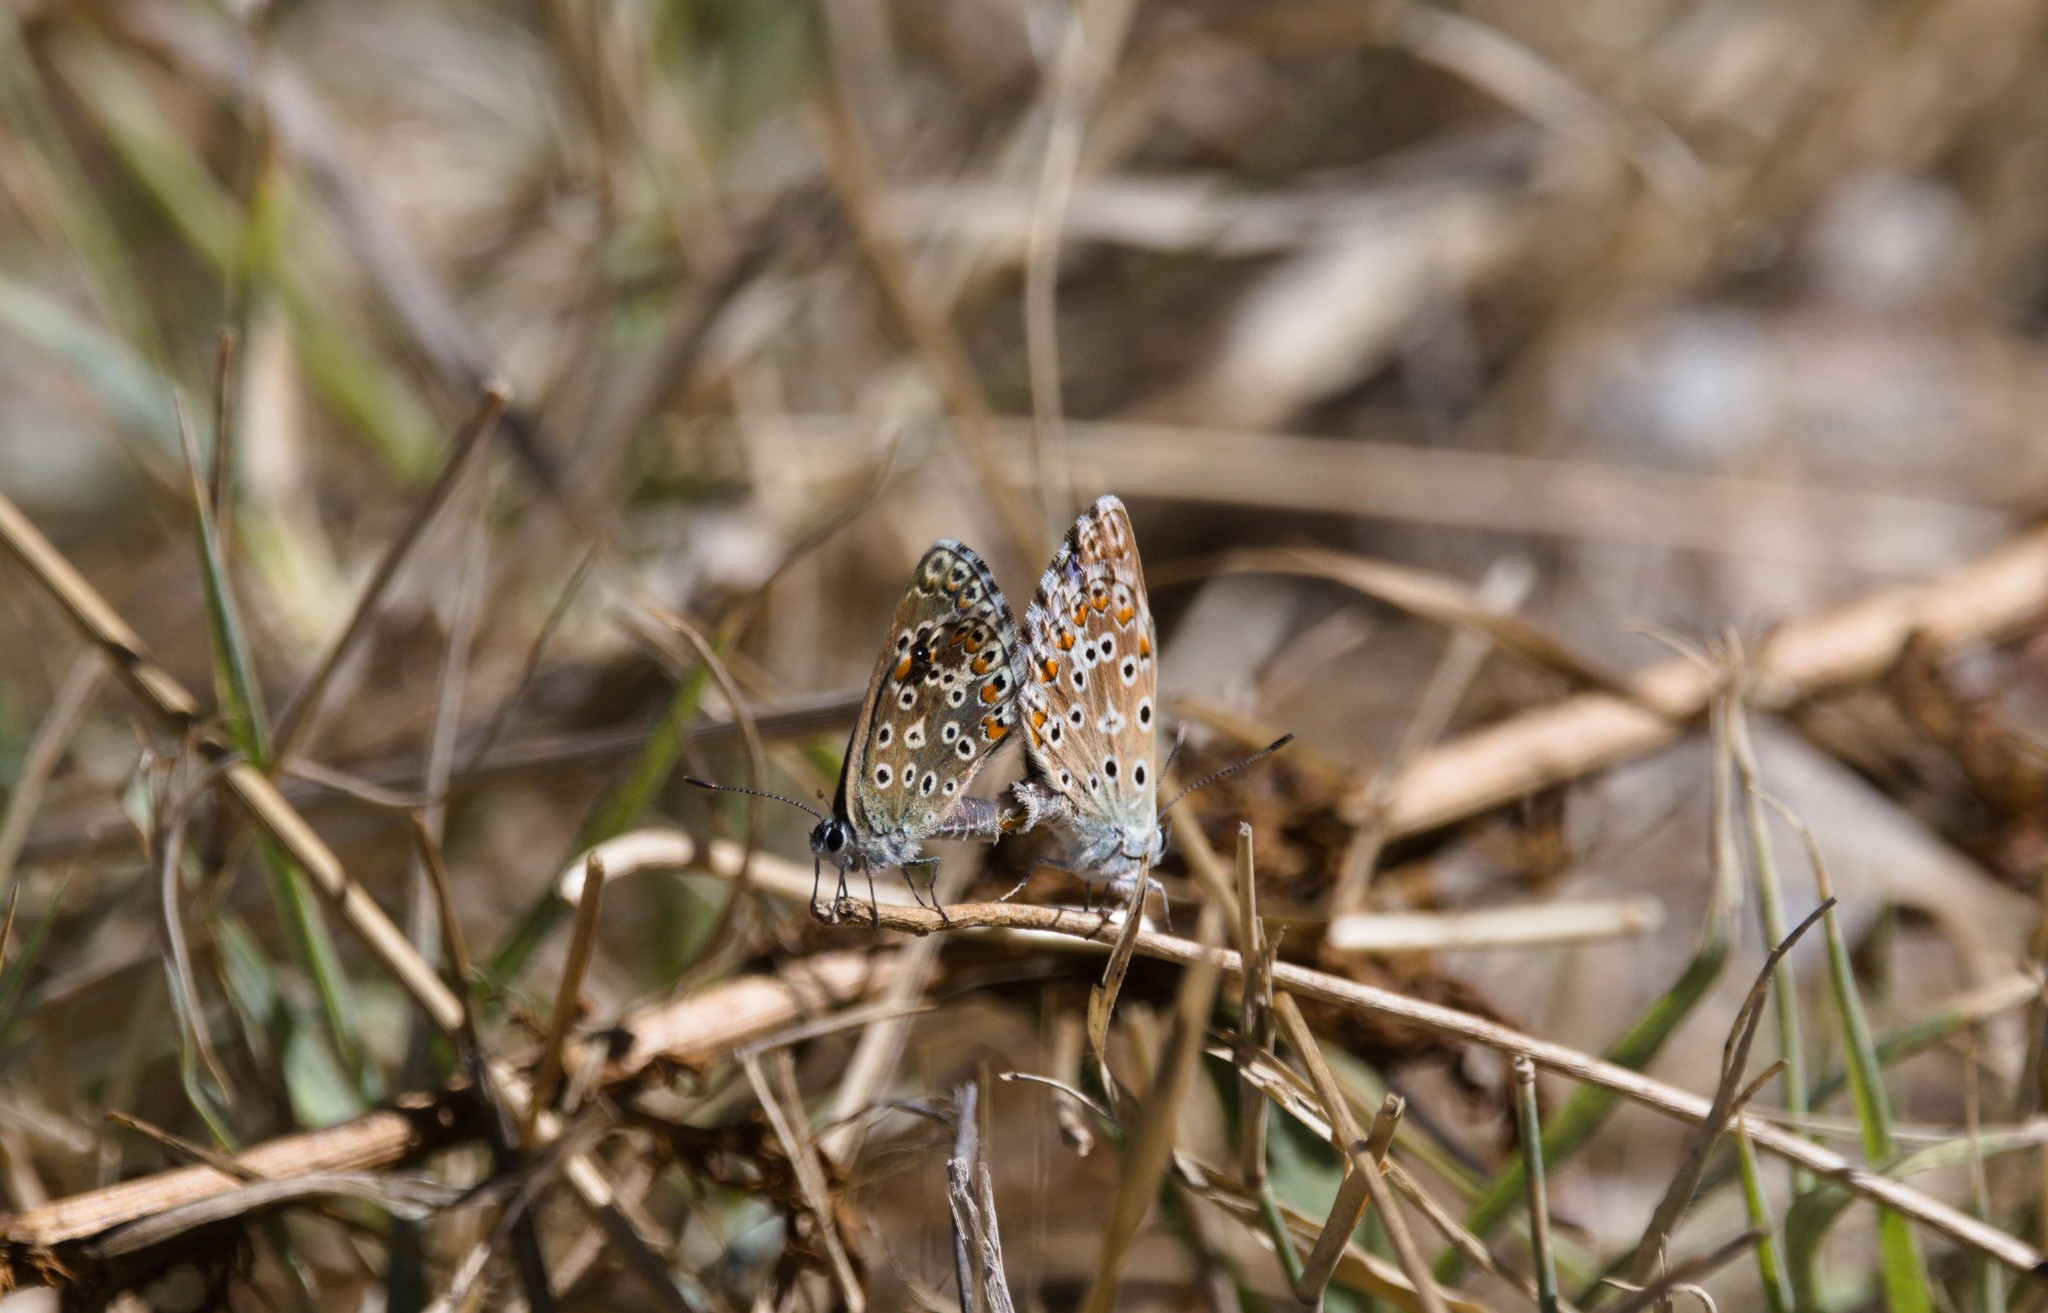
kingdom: Animalia
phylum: Arthropoda
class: Insecta
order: Lepidoptera
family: Lycaenidae
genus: Lysandra
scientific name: Lysandra bellargus
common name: Adonis blue
